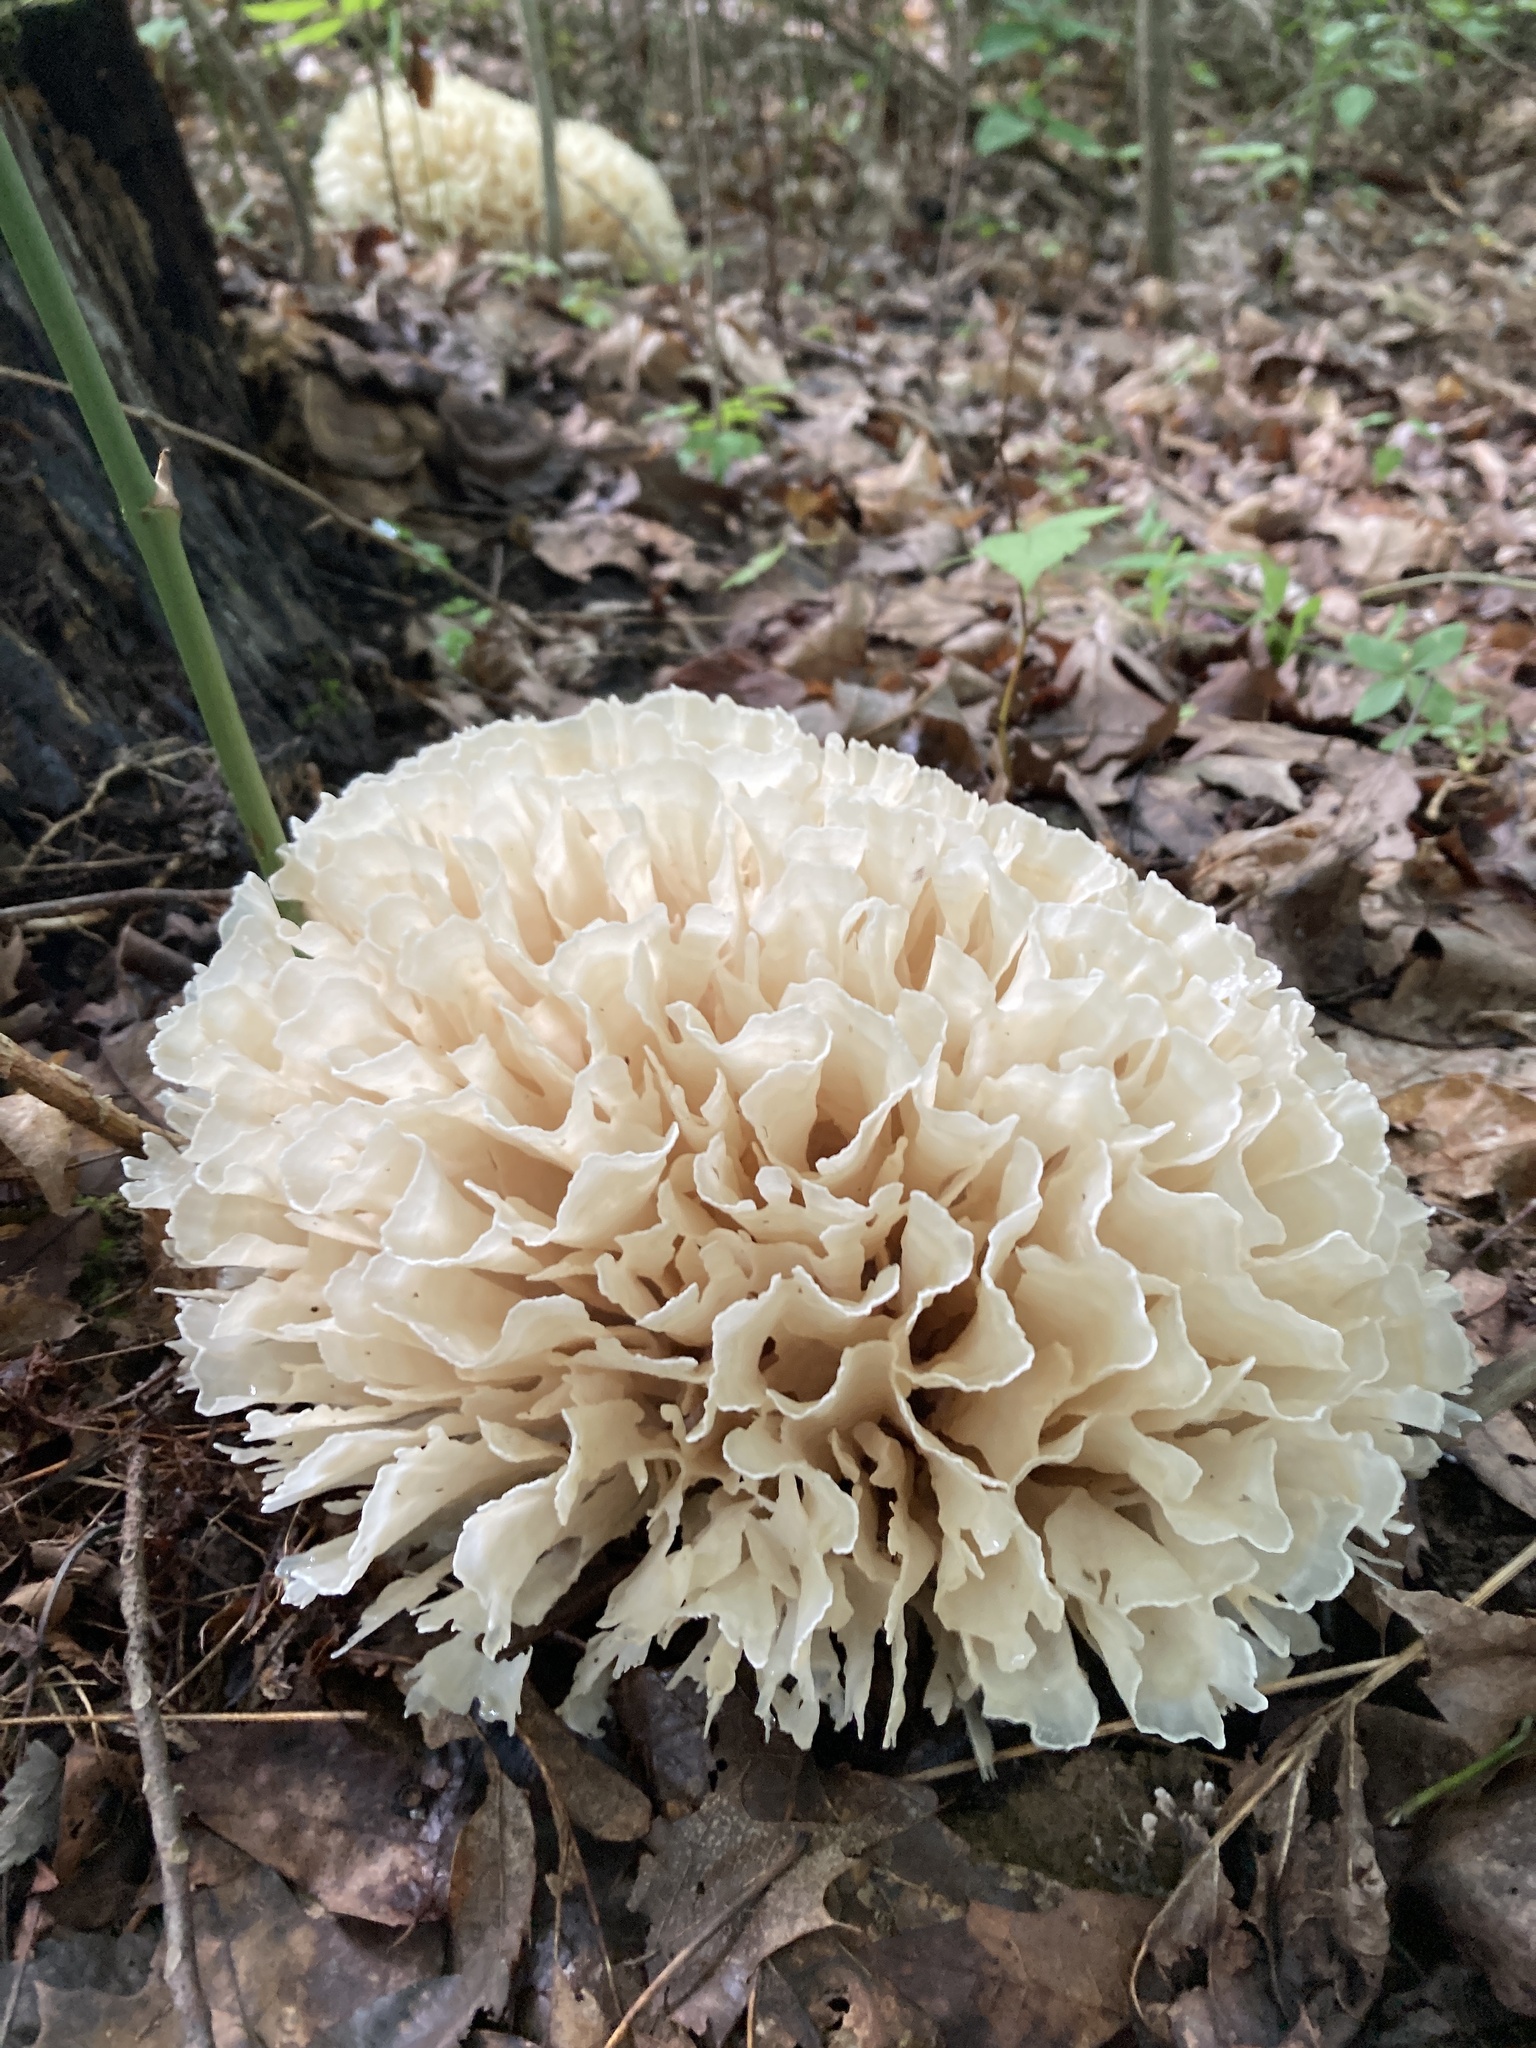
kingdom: Fungi
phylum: Basidiomycota
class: Agaricomycetes
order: Polyporales
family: Sparassidaceae
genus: Sparassis
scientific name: Sparassis spathulata
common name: Eastern cauliflower mushroom
